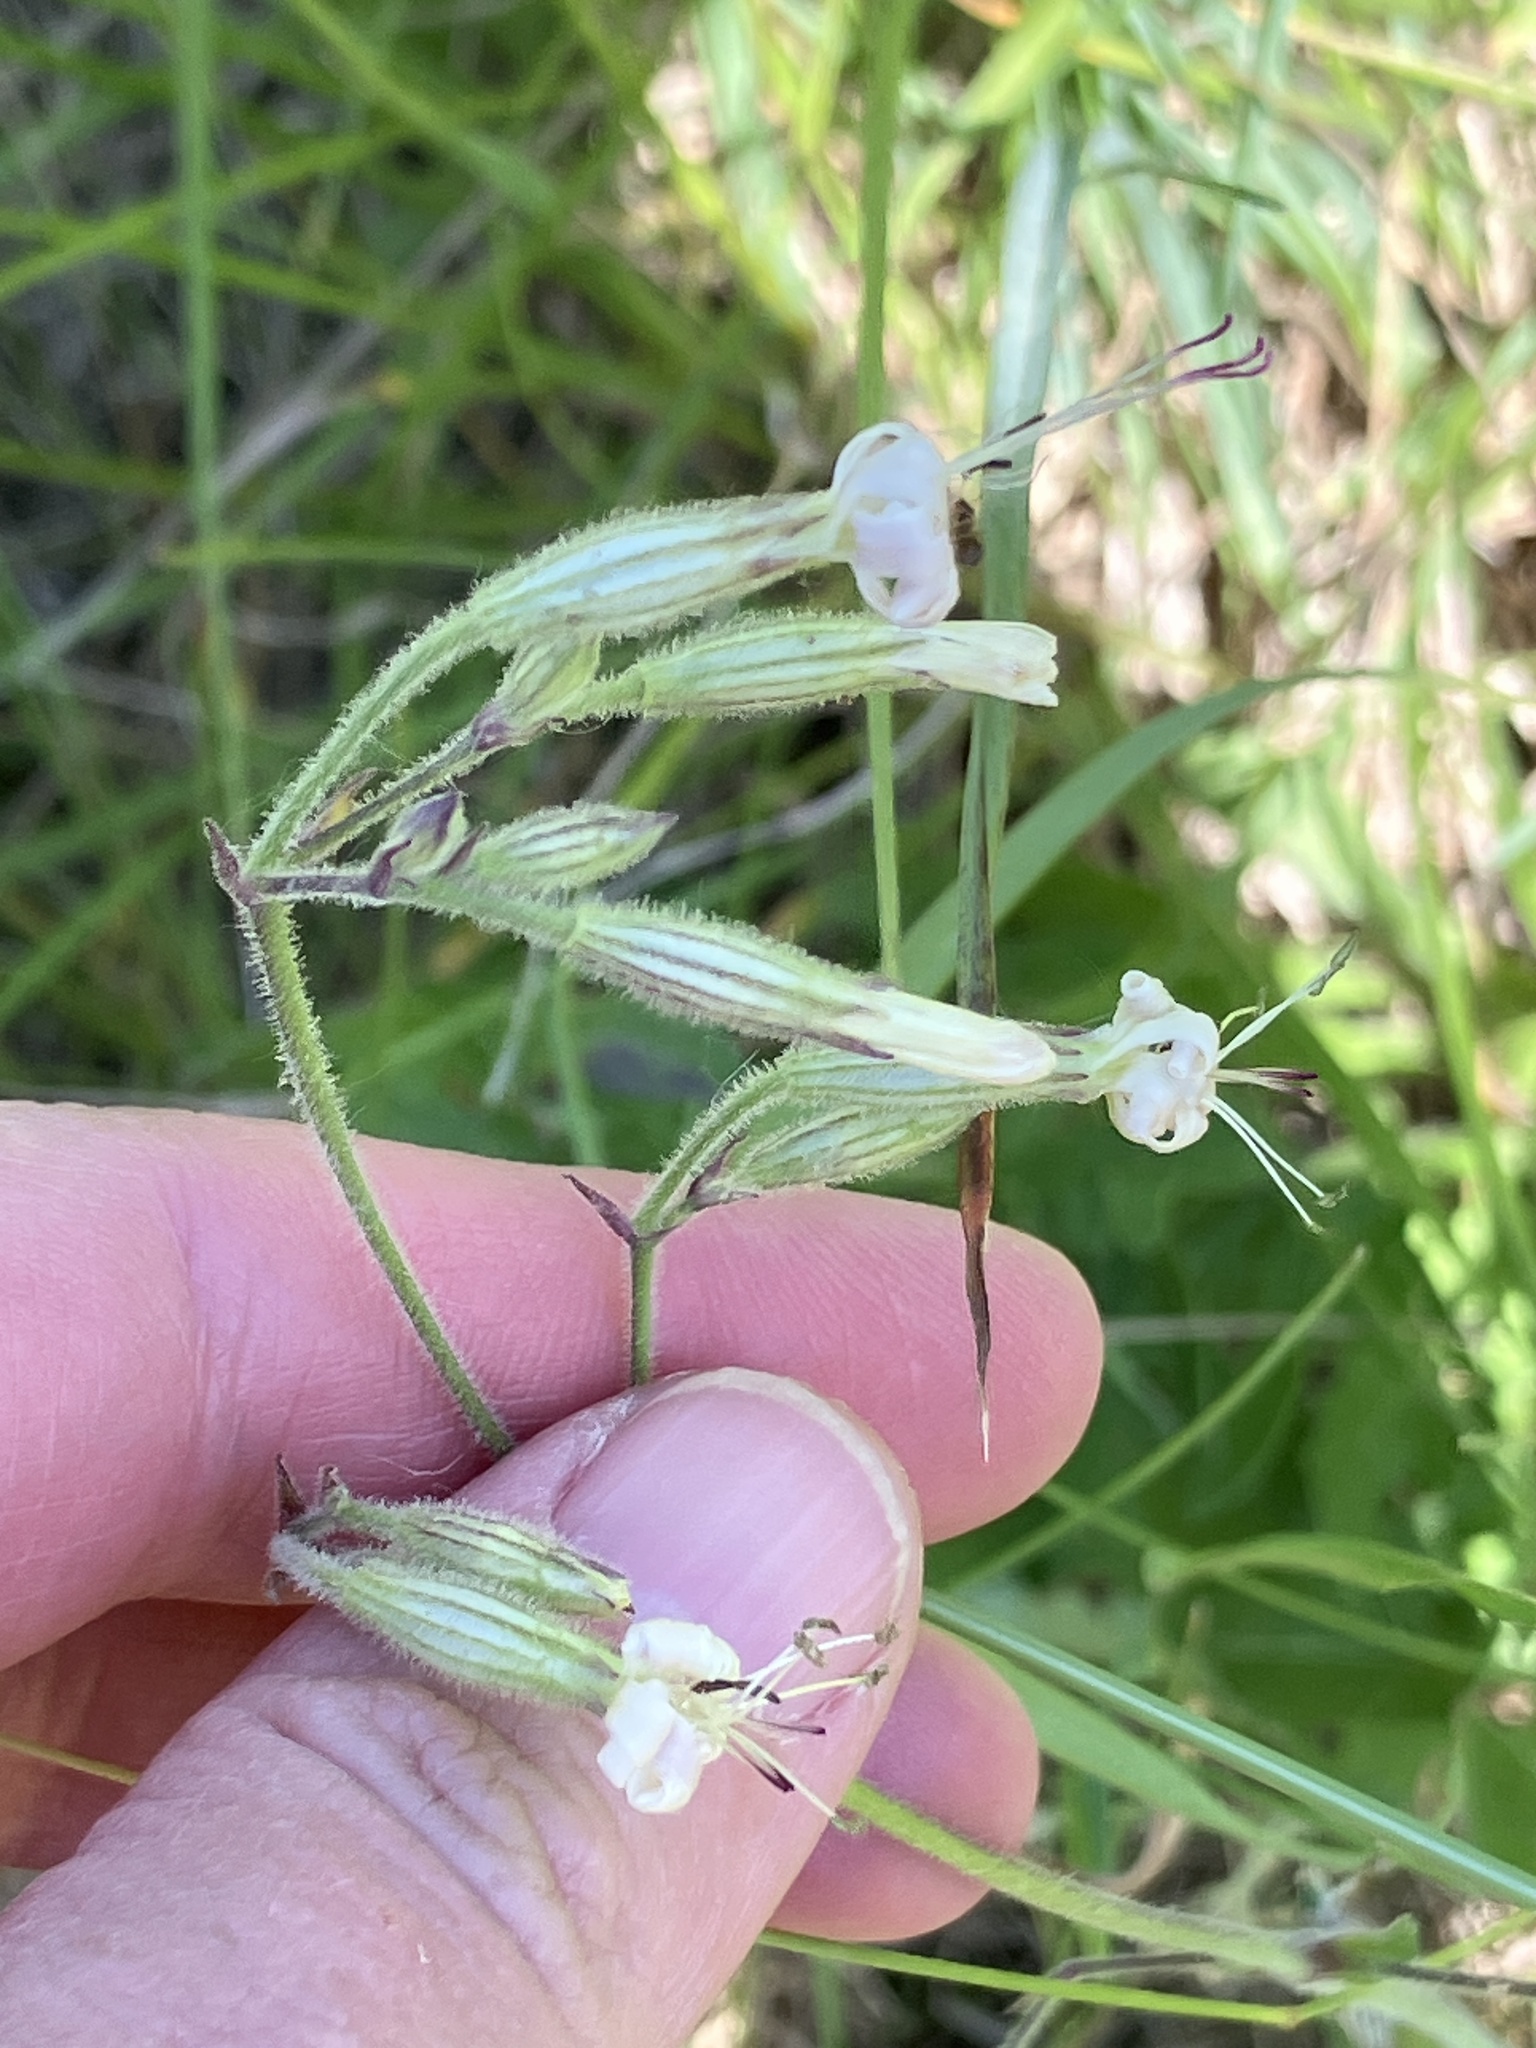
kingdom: Plantae
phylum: Tracheophyta
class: Magnoliopsida
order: Caryophyllales
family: Caryophyllaceae
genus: Silene
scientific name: Silene nutans
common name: Nottingham catchfly
